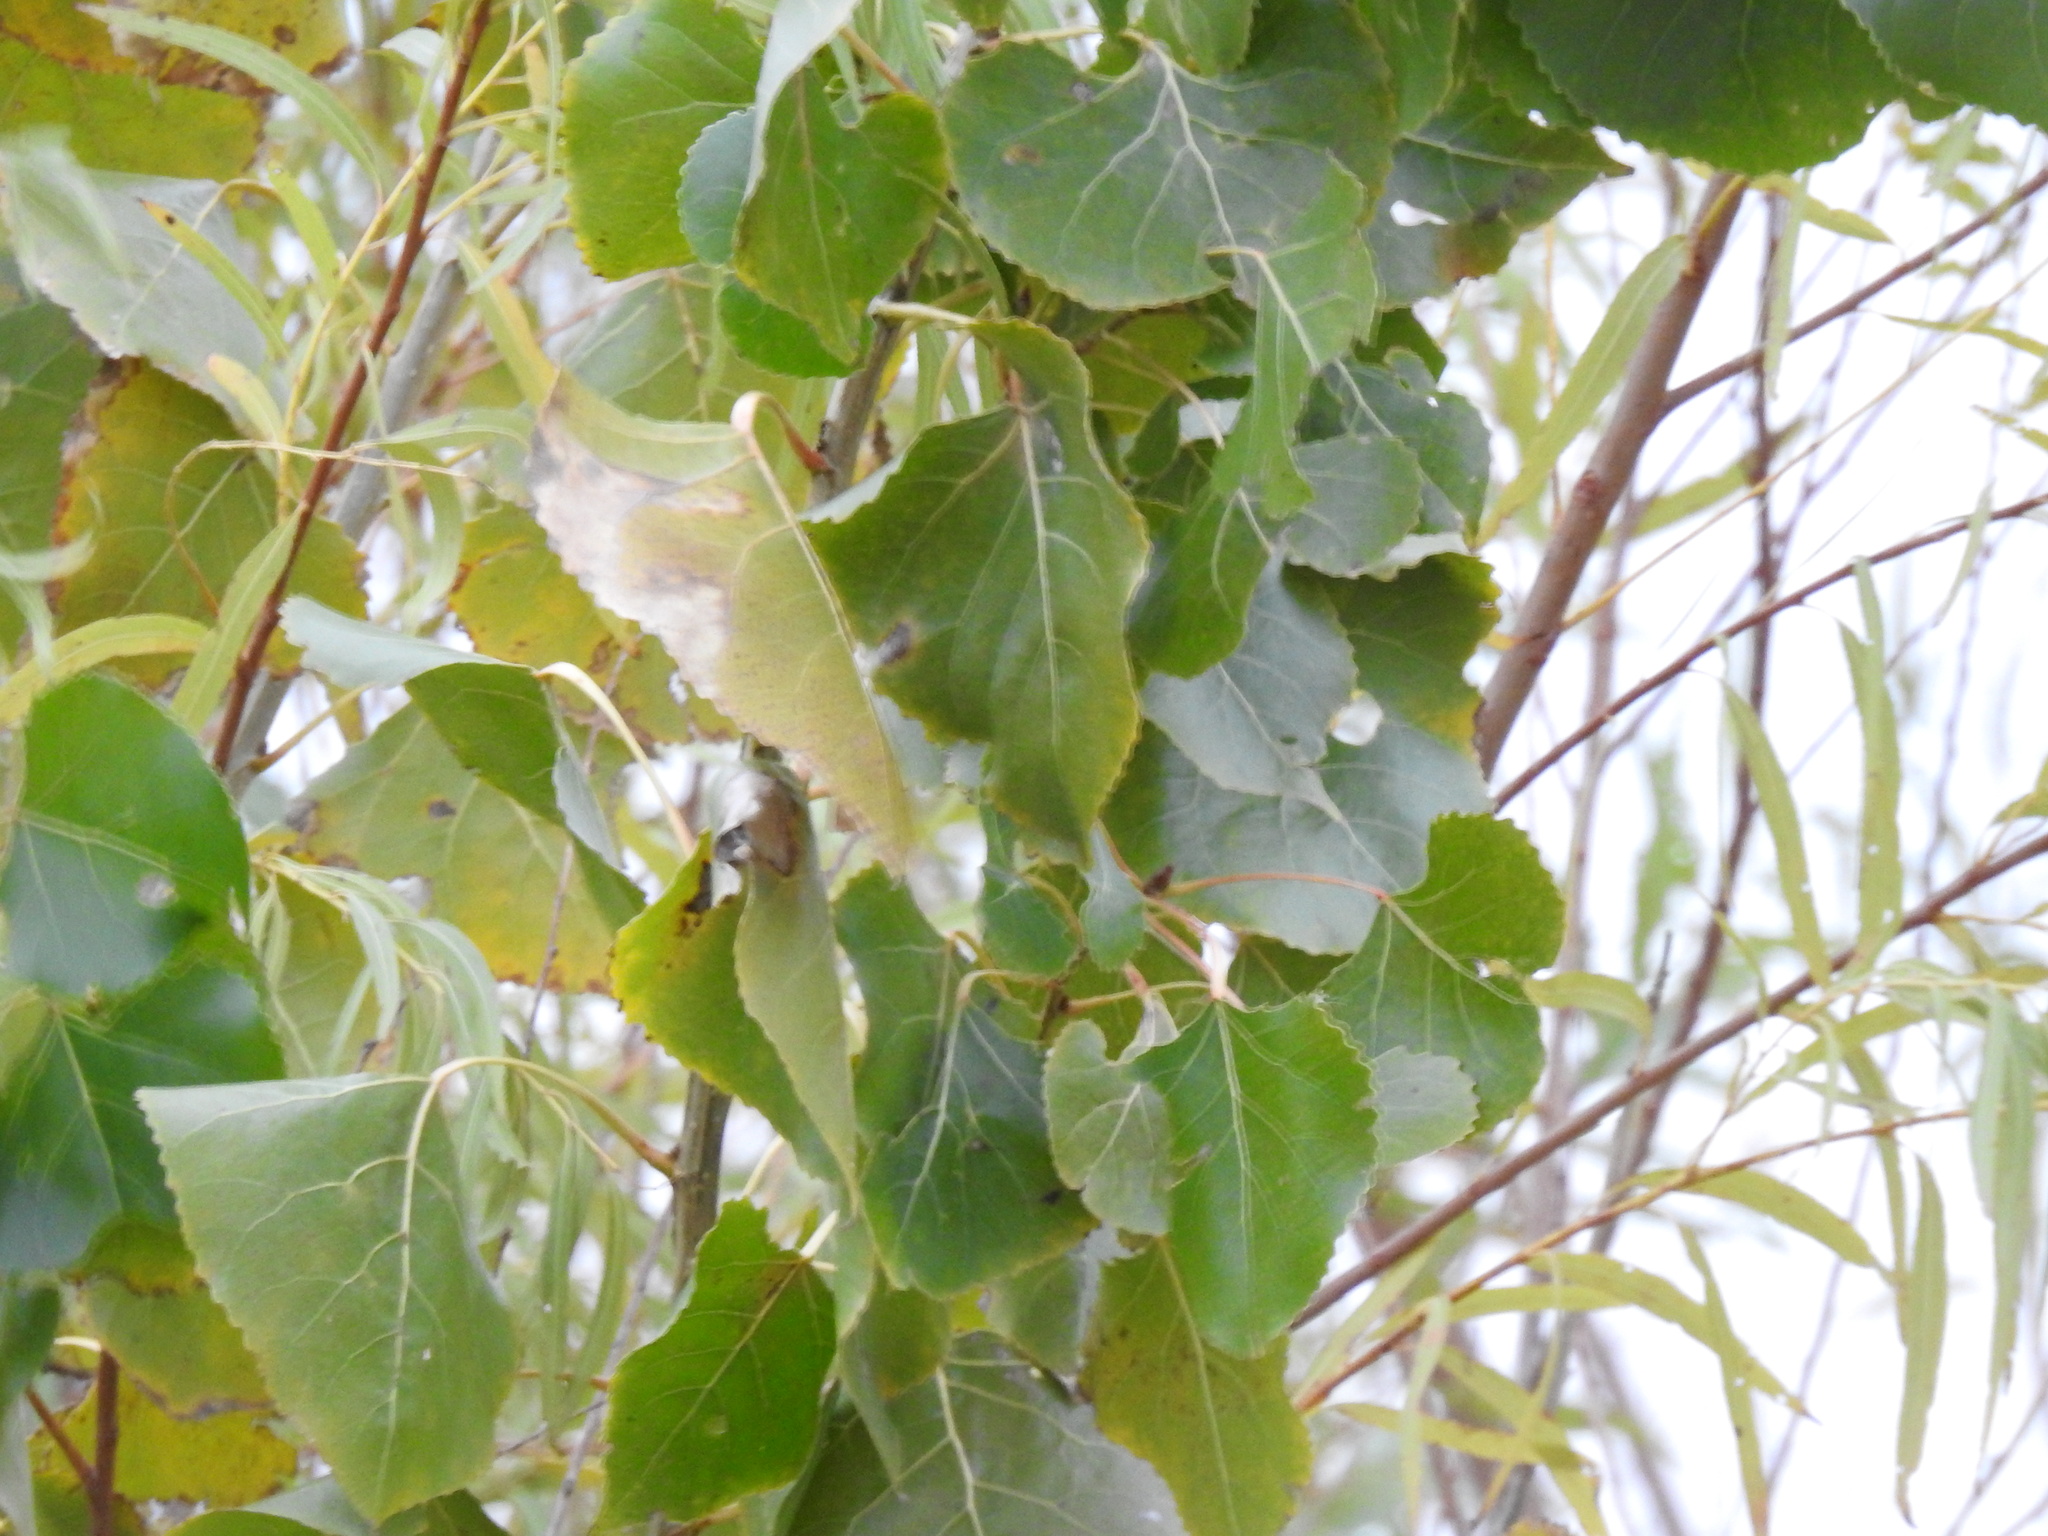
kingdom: Plantae
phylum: Tracheophyta
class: Magnoliopsida
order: Malpighiales
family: Salicaceae
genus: Populus
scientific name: Populus deltoides
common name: Eastern cottonwood
